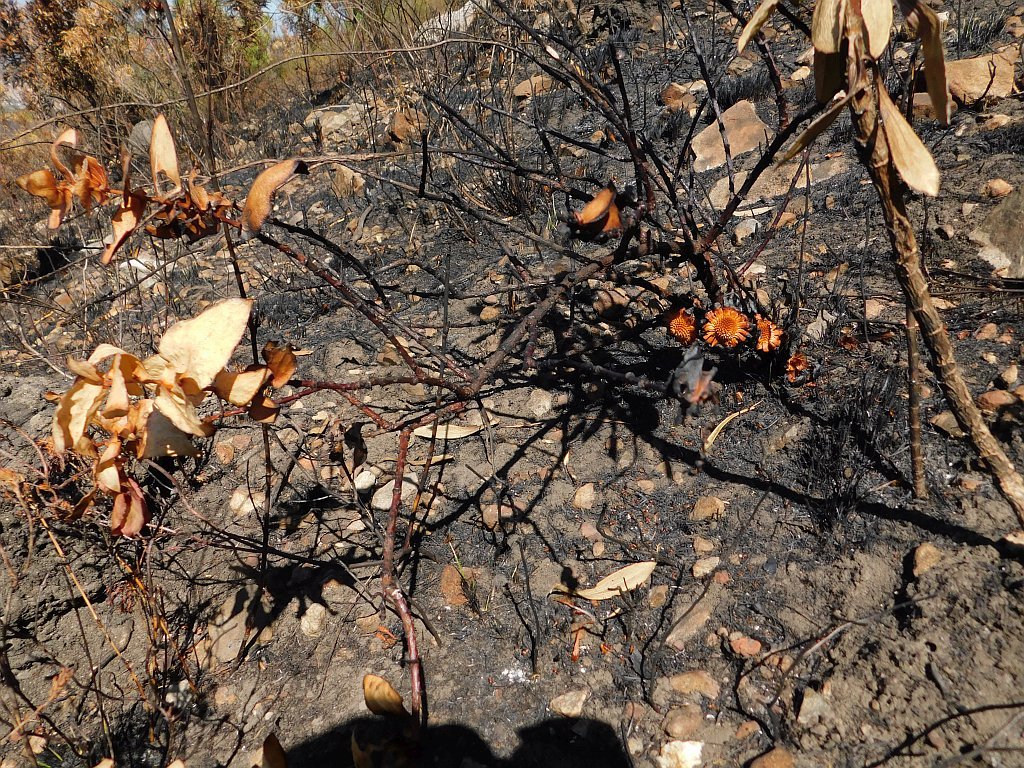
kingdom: Plantae
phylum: Tracheophyta
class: Magnoliopsida
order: Proteales
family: Proteaceae
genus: Protea
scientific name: Protea amplexicaulis
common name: Clasping-leaf sugarbush
